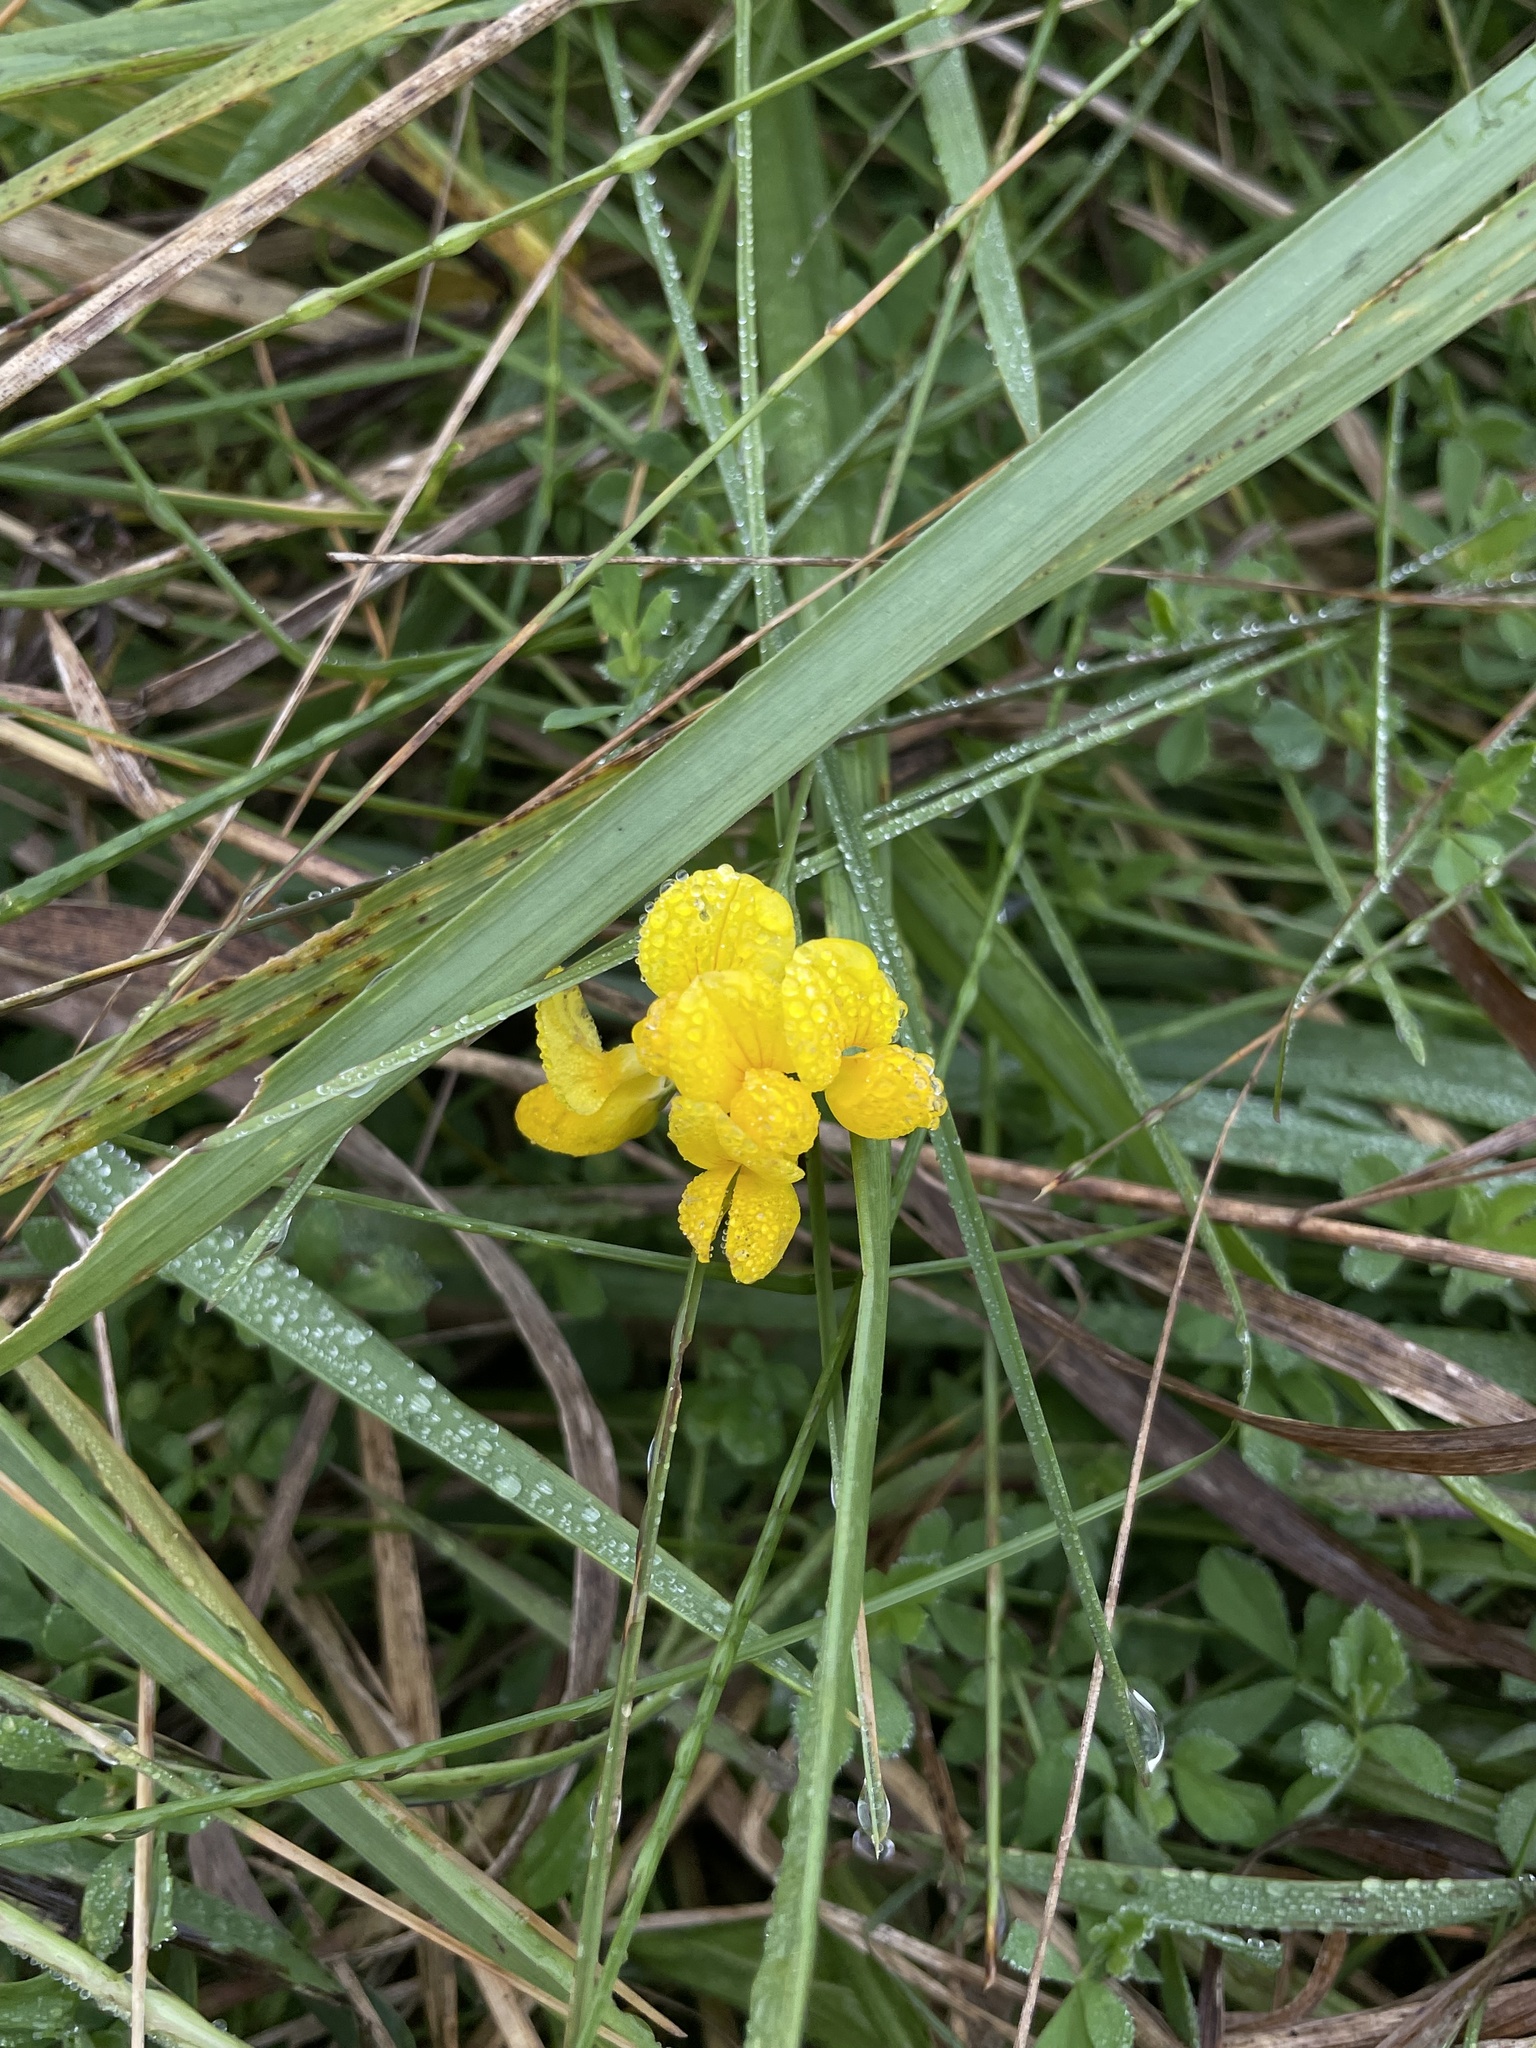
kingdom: Plantae
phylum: Tracheophyta
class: Magnoliopsida
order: Fabales
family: Fabaceae
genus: Lotus
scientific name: Lotus corniculatus
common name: Common bird's-foot-trefoil
